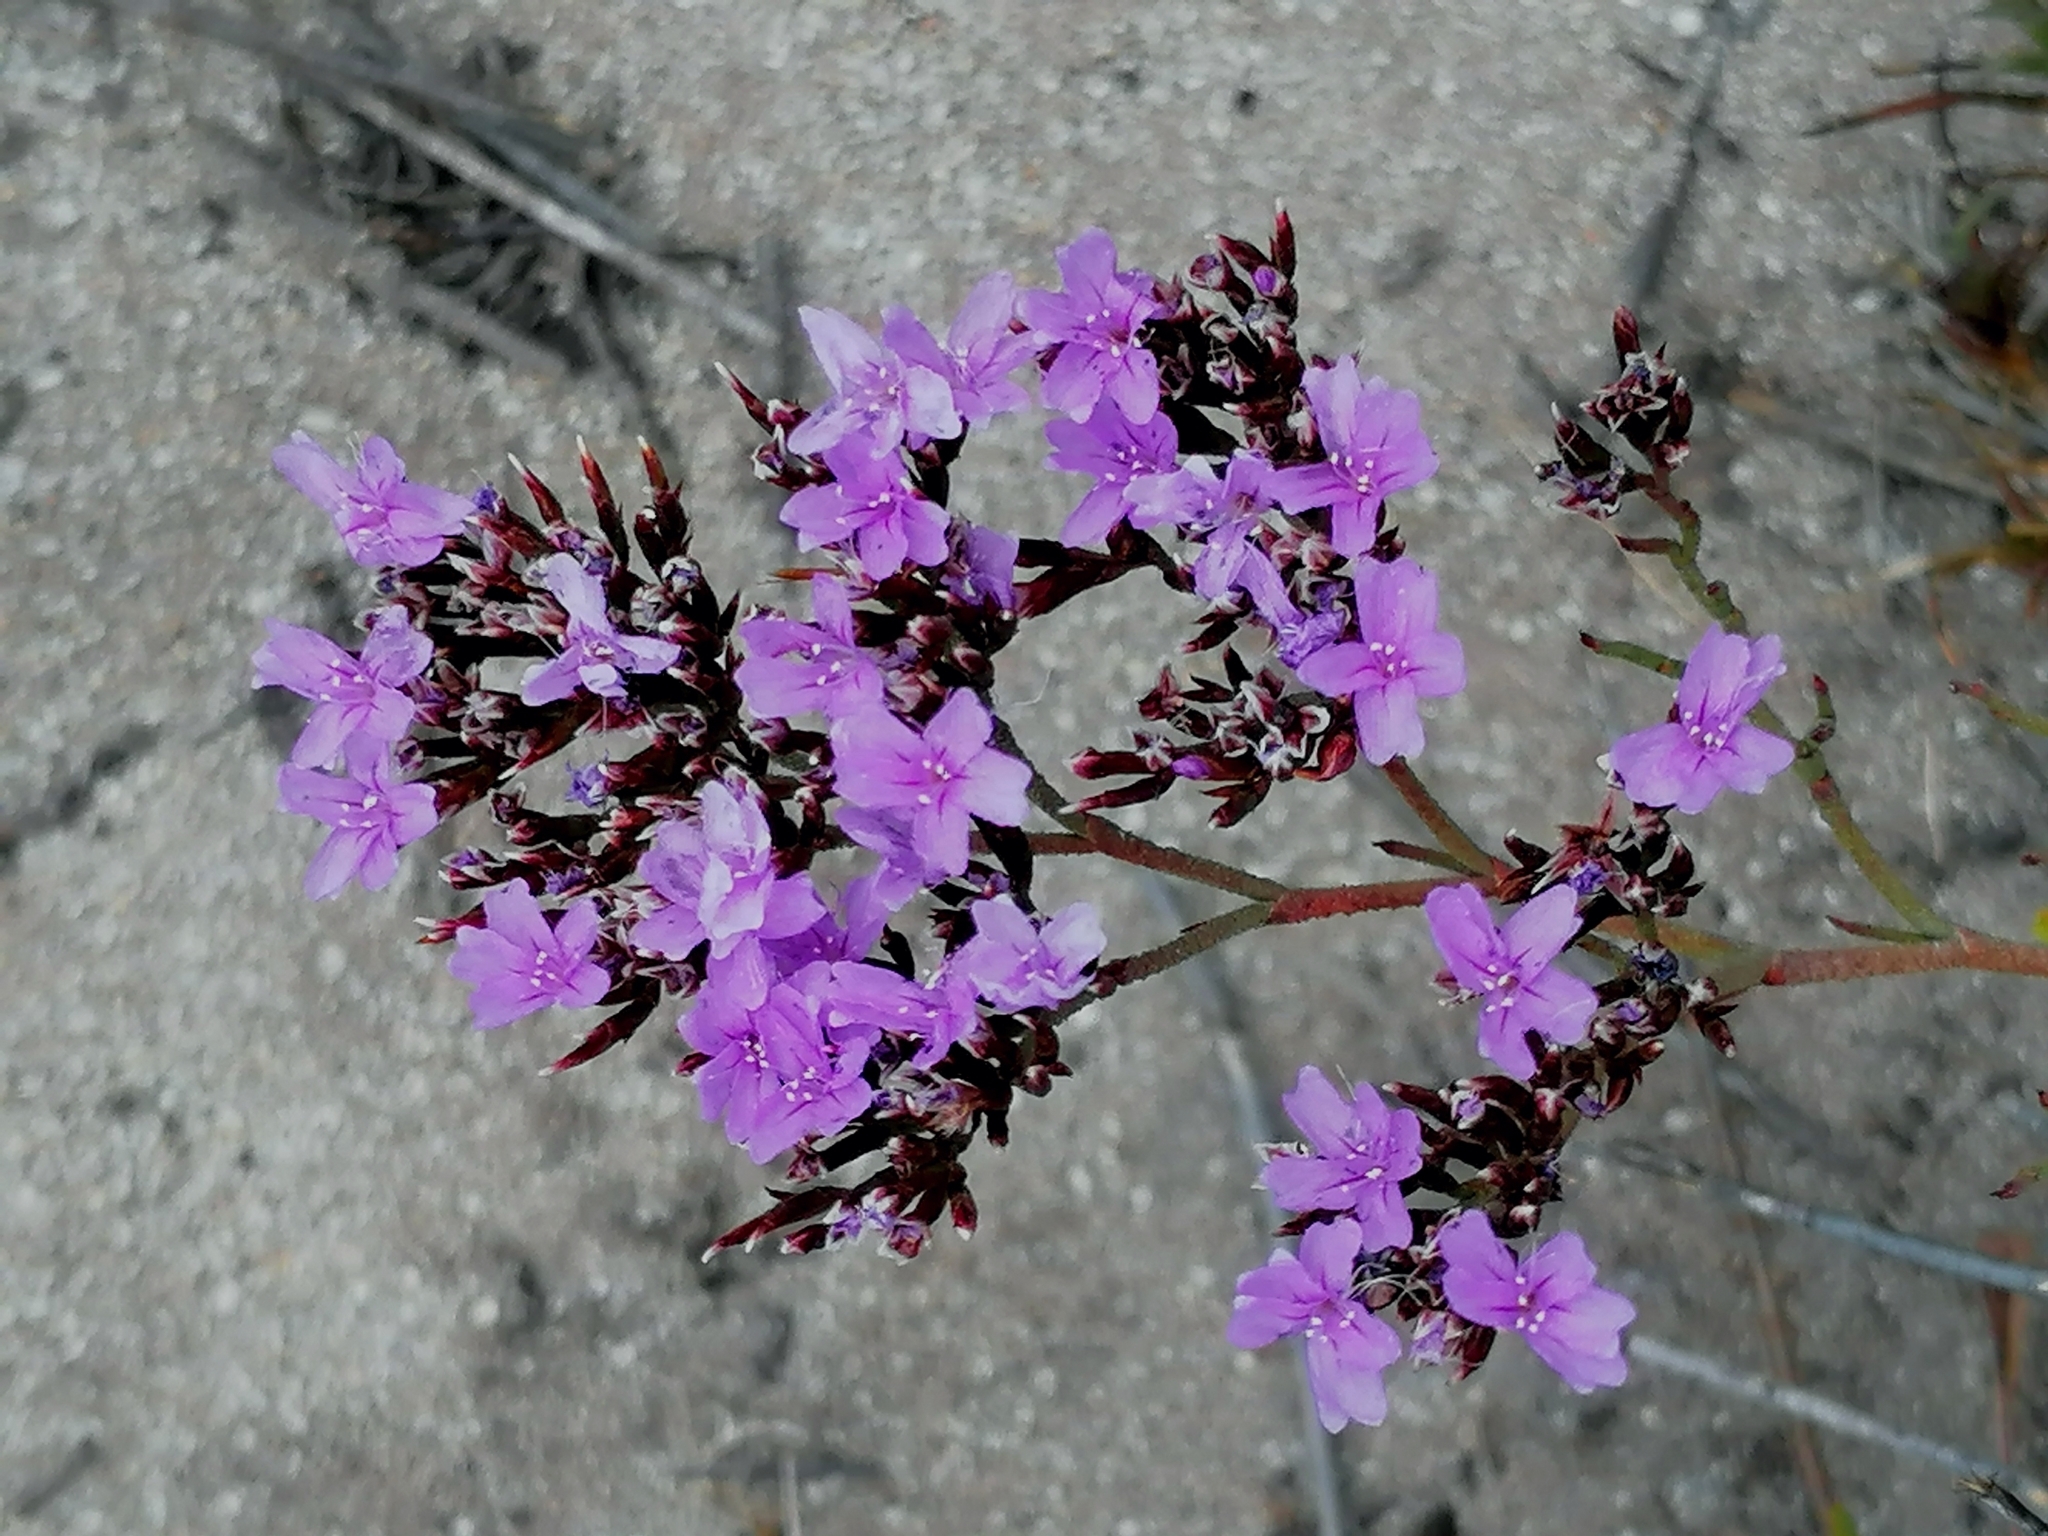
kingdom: Plantae
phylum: Tracheophyta
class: Magnoliopsida
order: Caryophyllales
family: Plumbaginaceae
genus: Limonium
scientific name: Limonium scabrum
